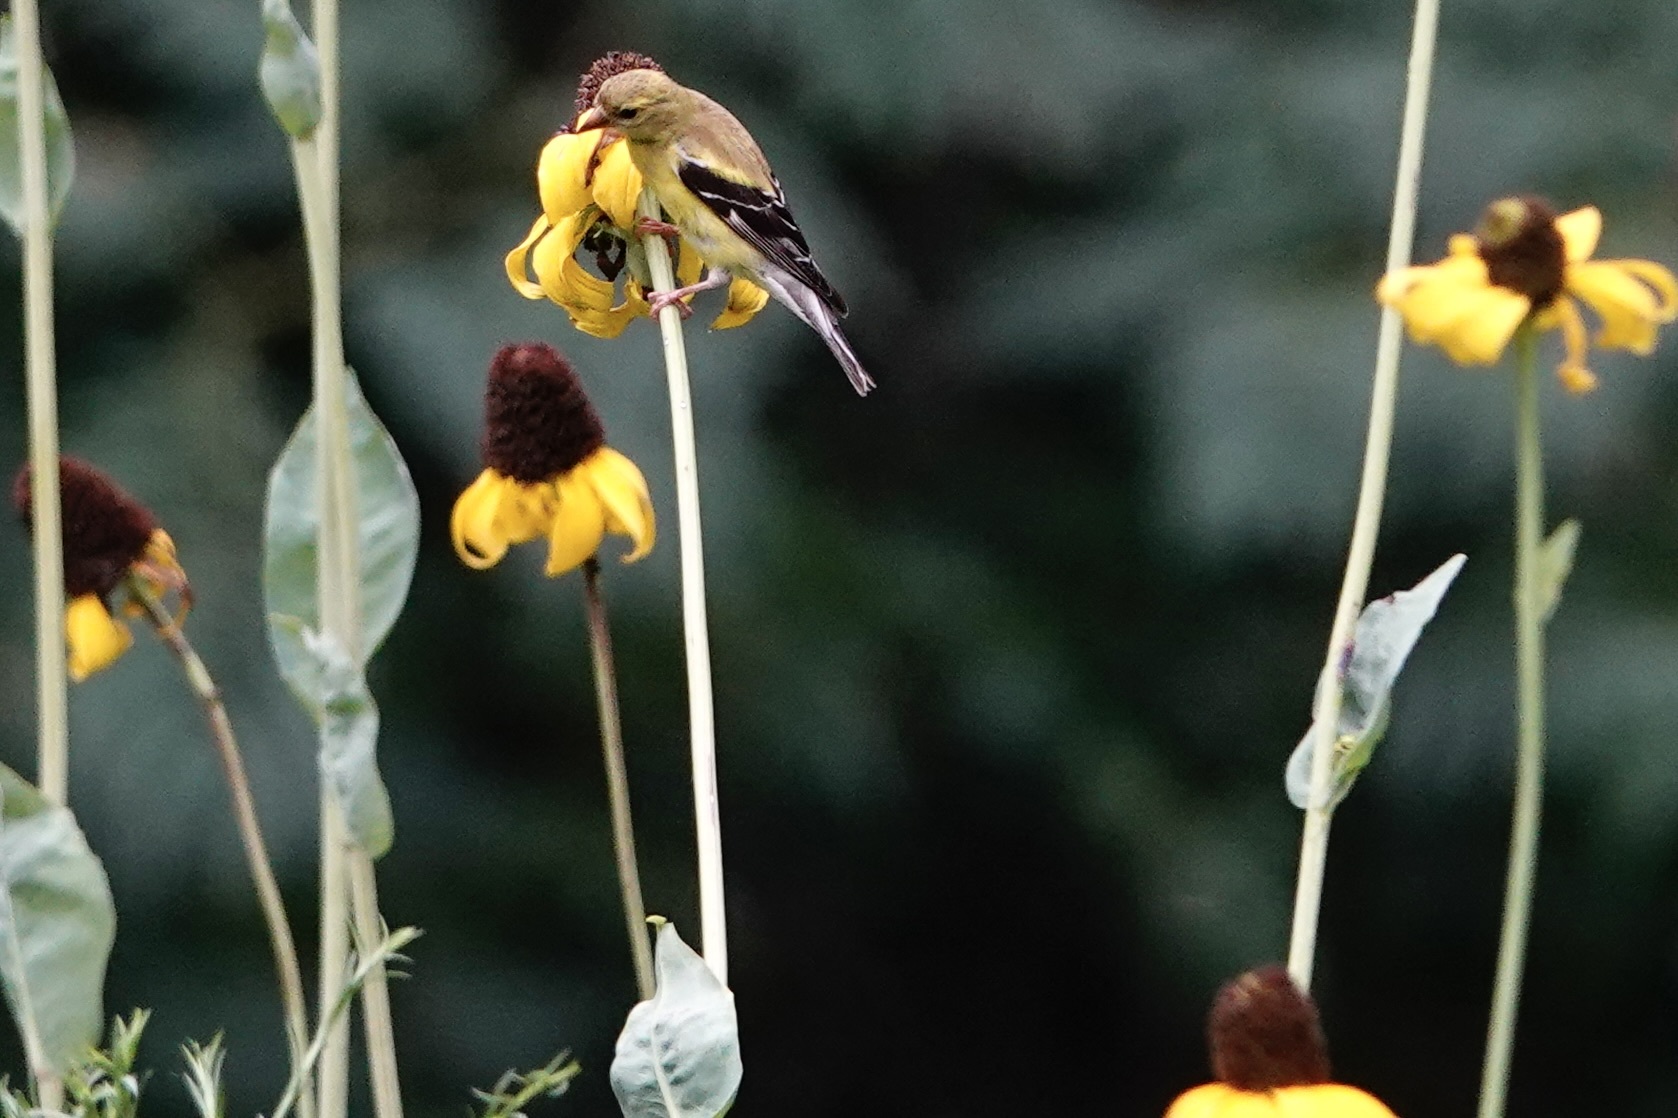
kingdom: Animalia
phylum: Chordata
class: Aves
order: Passeriformes
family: Fringillidae
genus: Spinus
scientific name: Spinus tristis
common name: American goldfinch
